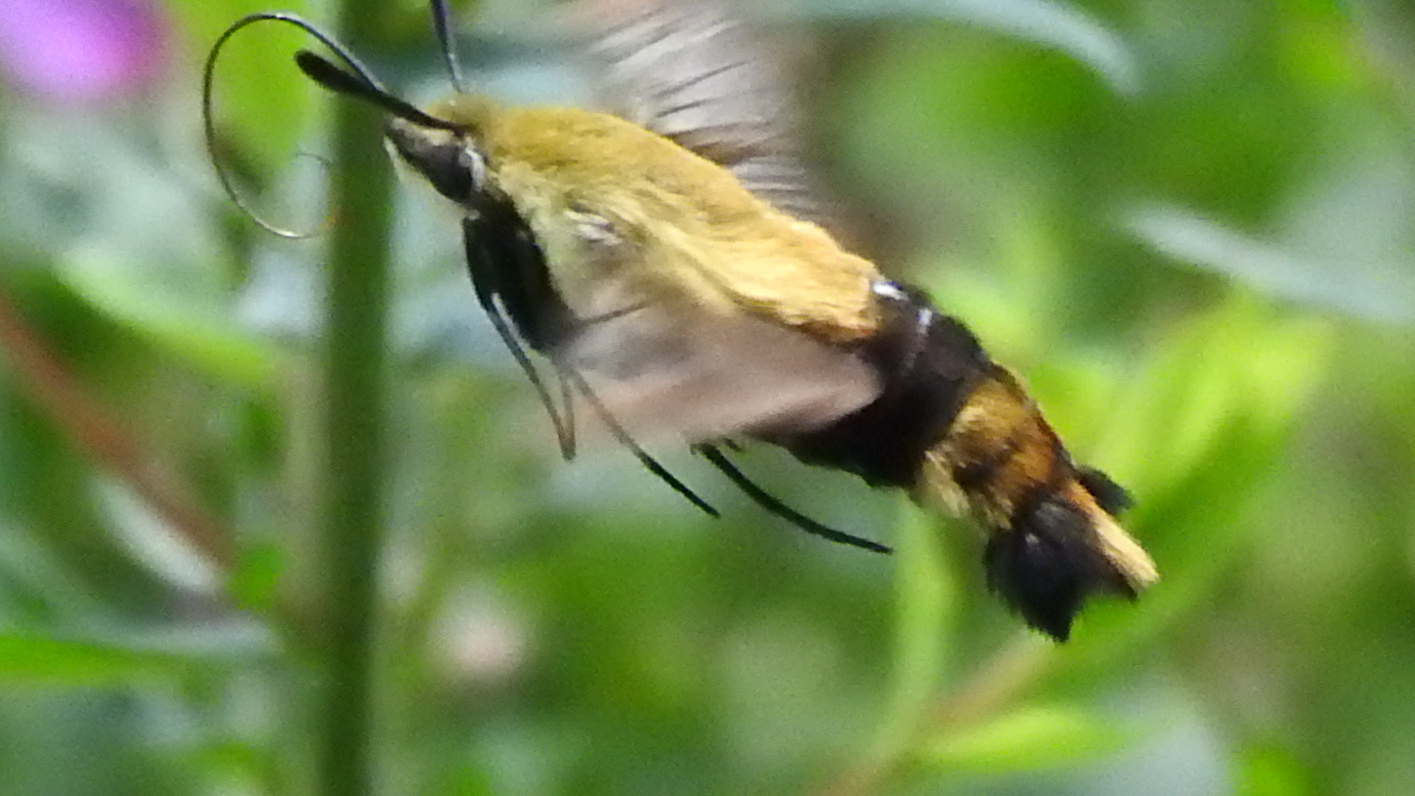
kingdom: Animalia
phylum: Arthropoda
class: Insecta
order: Lepidoptera
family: Sphingidae
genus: Hemaris
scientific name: Hemaris diffinis
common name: Bumblebee moth
